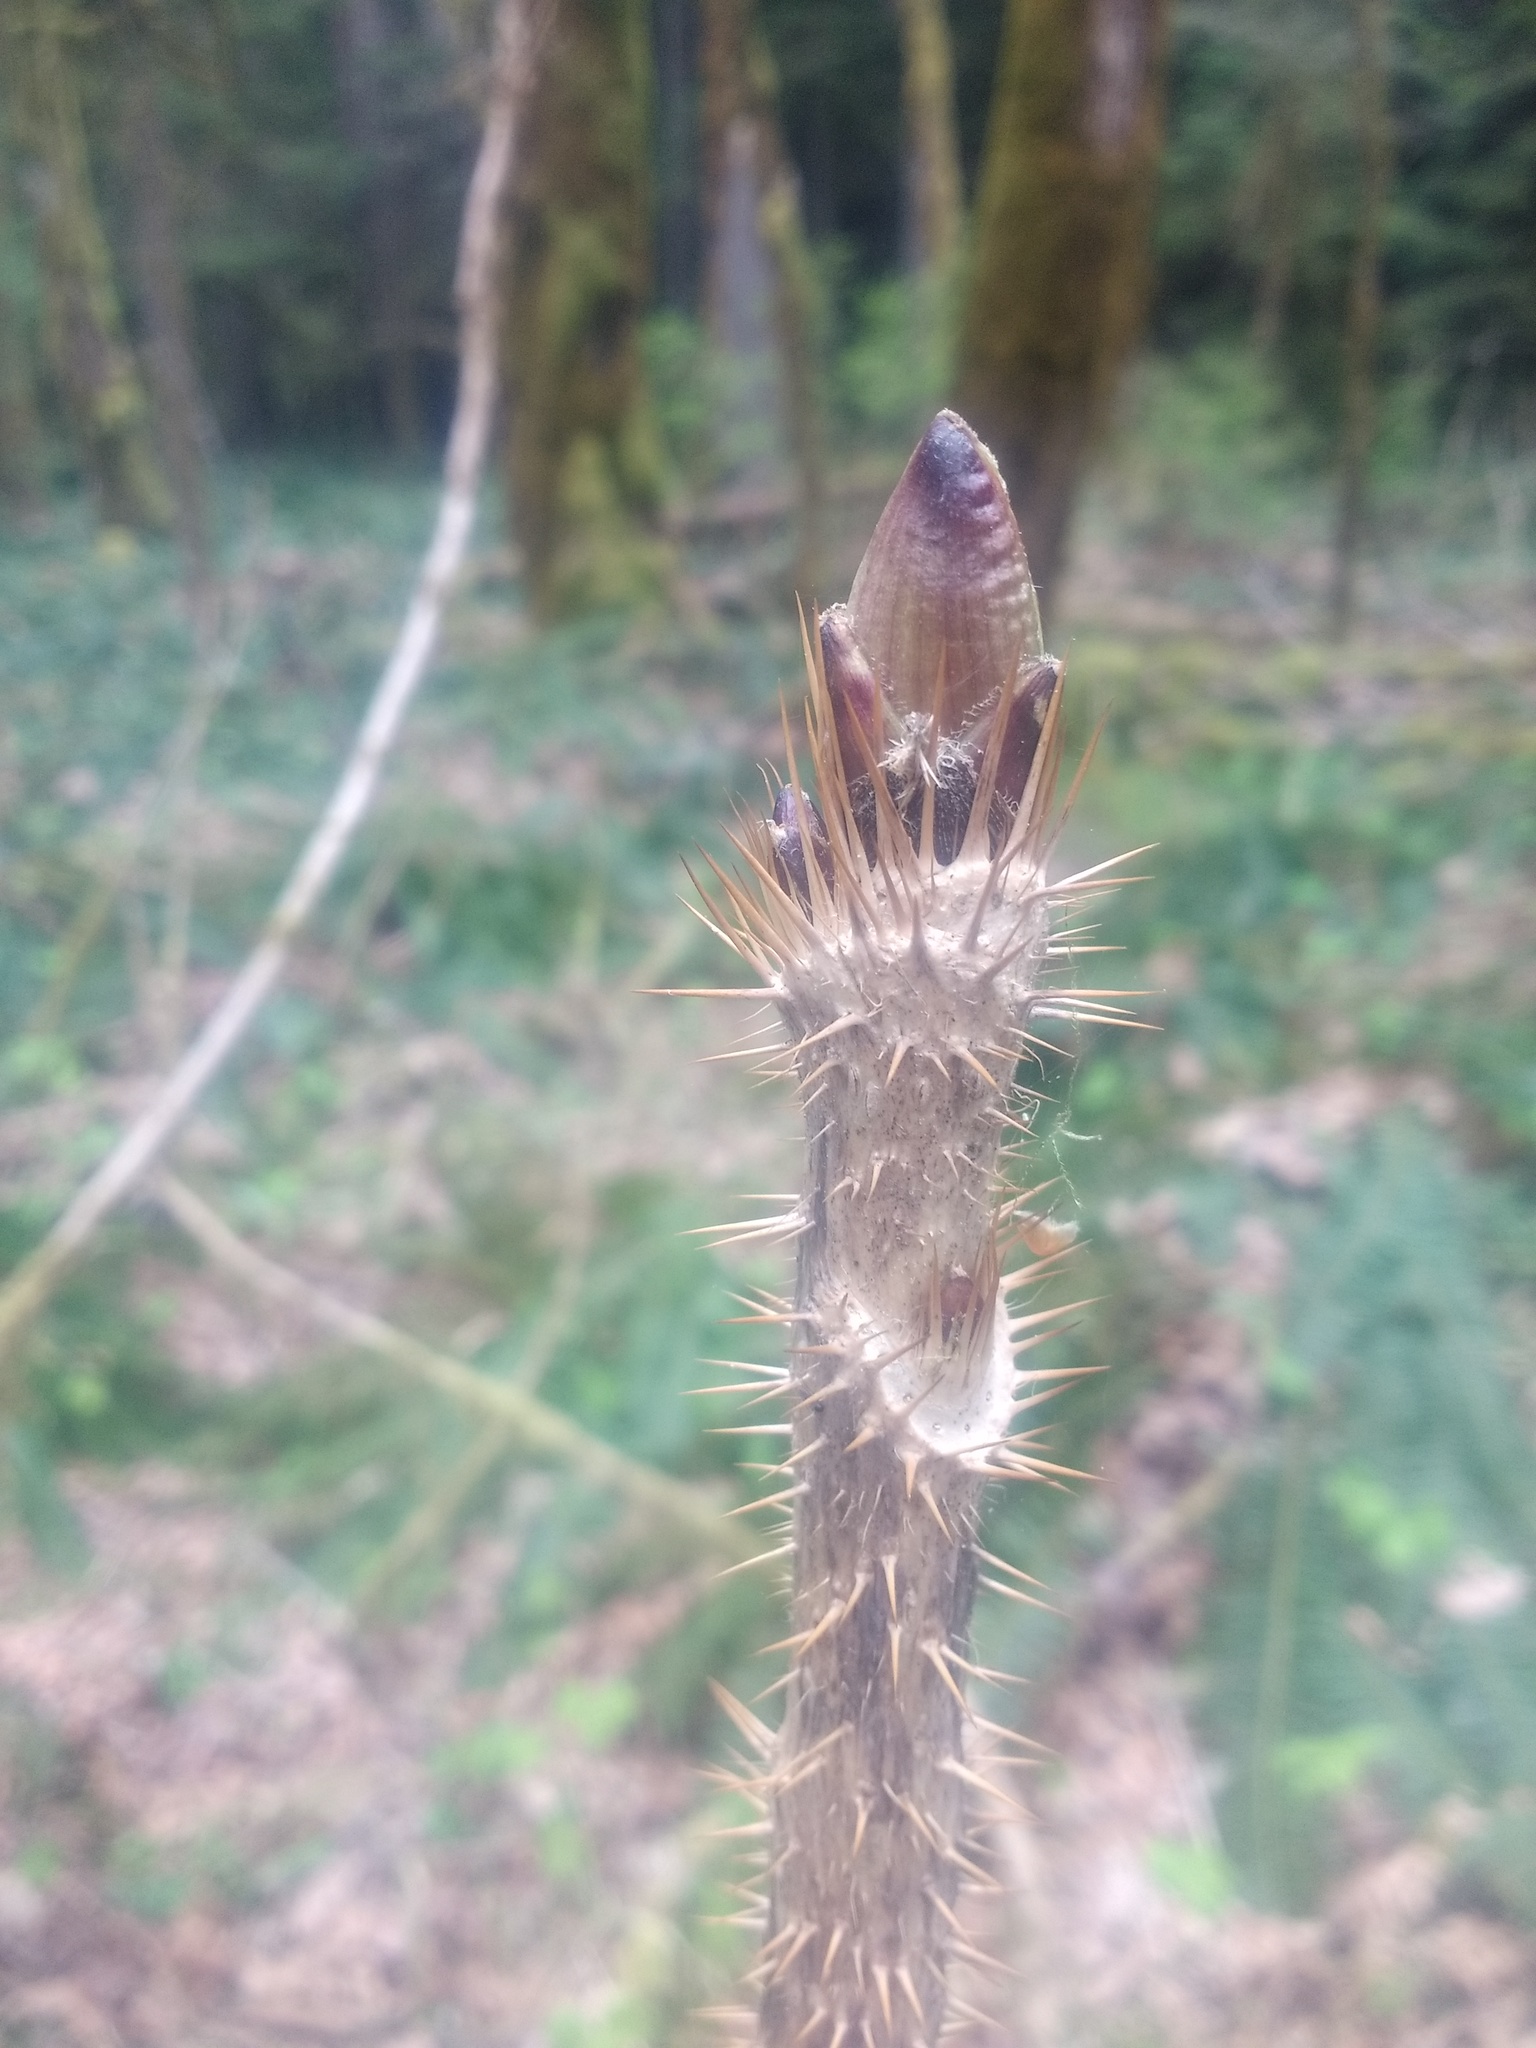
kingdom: Plantae
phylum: Tracheophyta
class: Magnoliopsida
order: Apiales
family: Araliaceae
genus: Oplopanax
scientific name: Oplopanax horridus
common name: Devil's walking-stick
